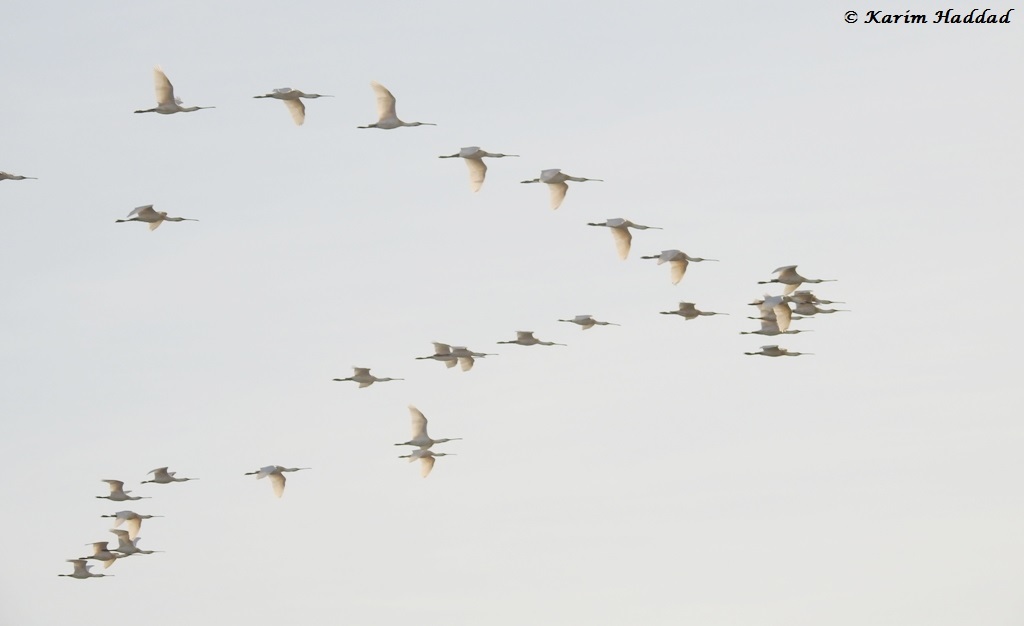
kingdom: Animalia
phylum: Chordata
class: Aves
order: Pelecaniformes
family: Threskiornithidae
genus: Platalea
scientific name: Platalea leucorodia
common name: Eurasian spoonbill
